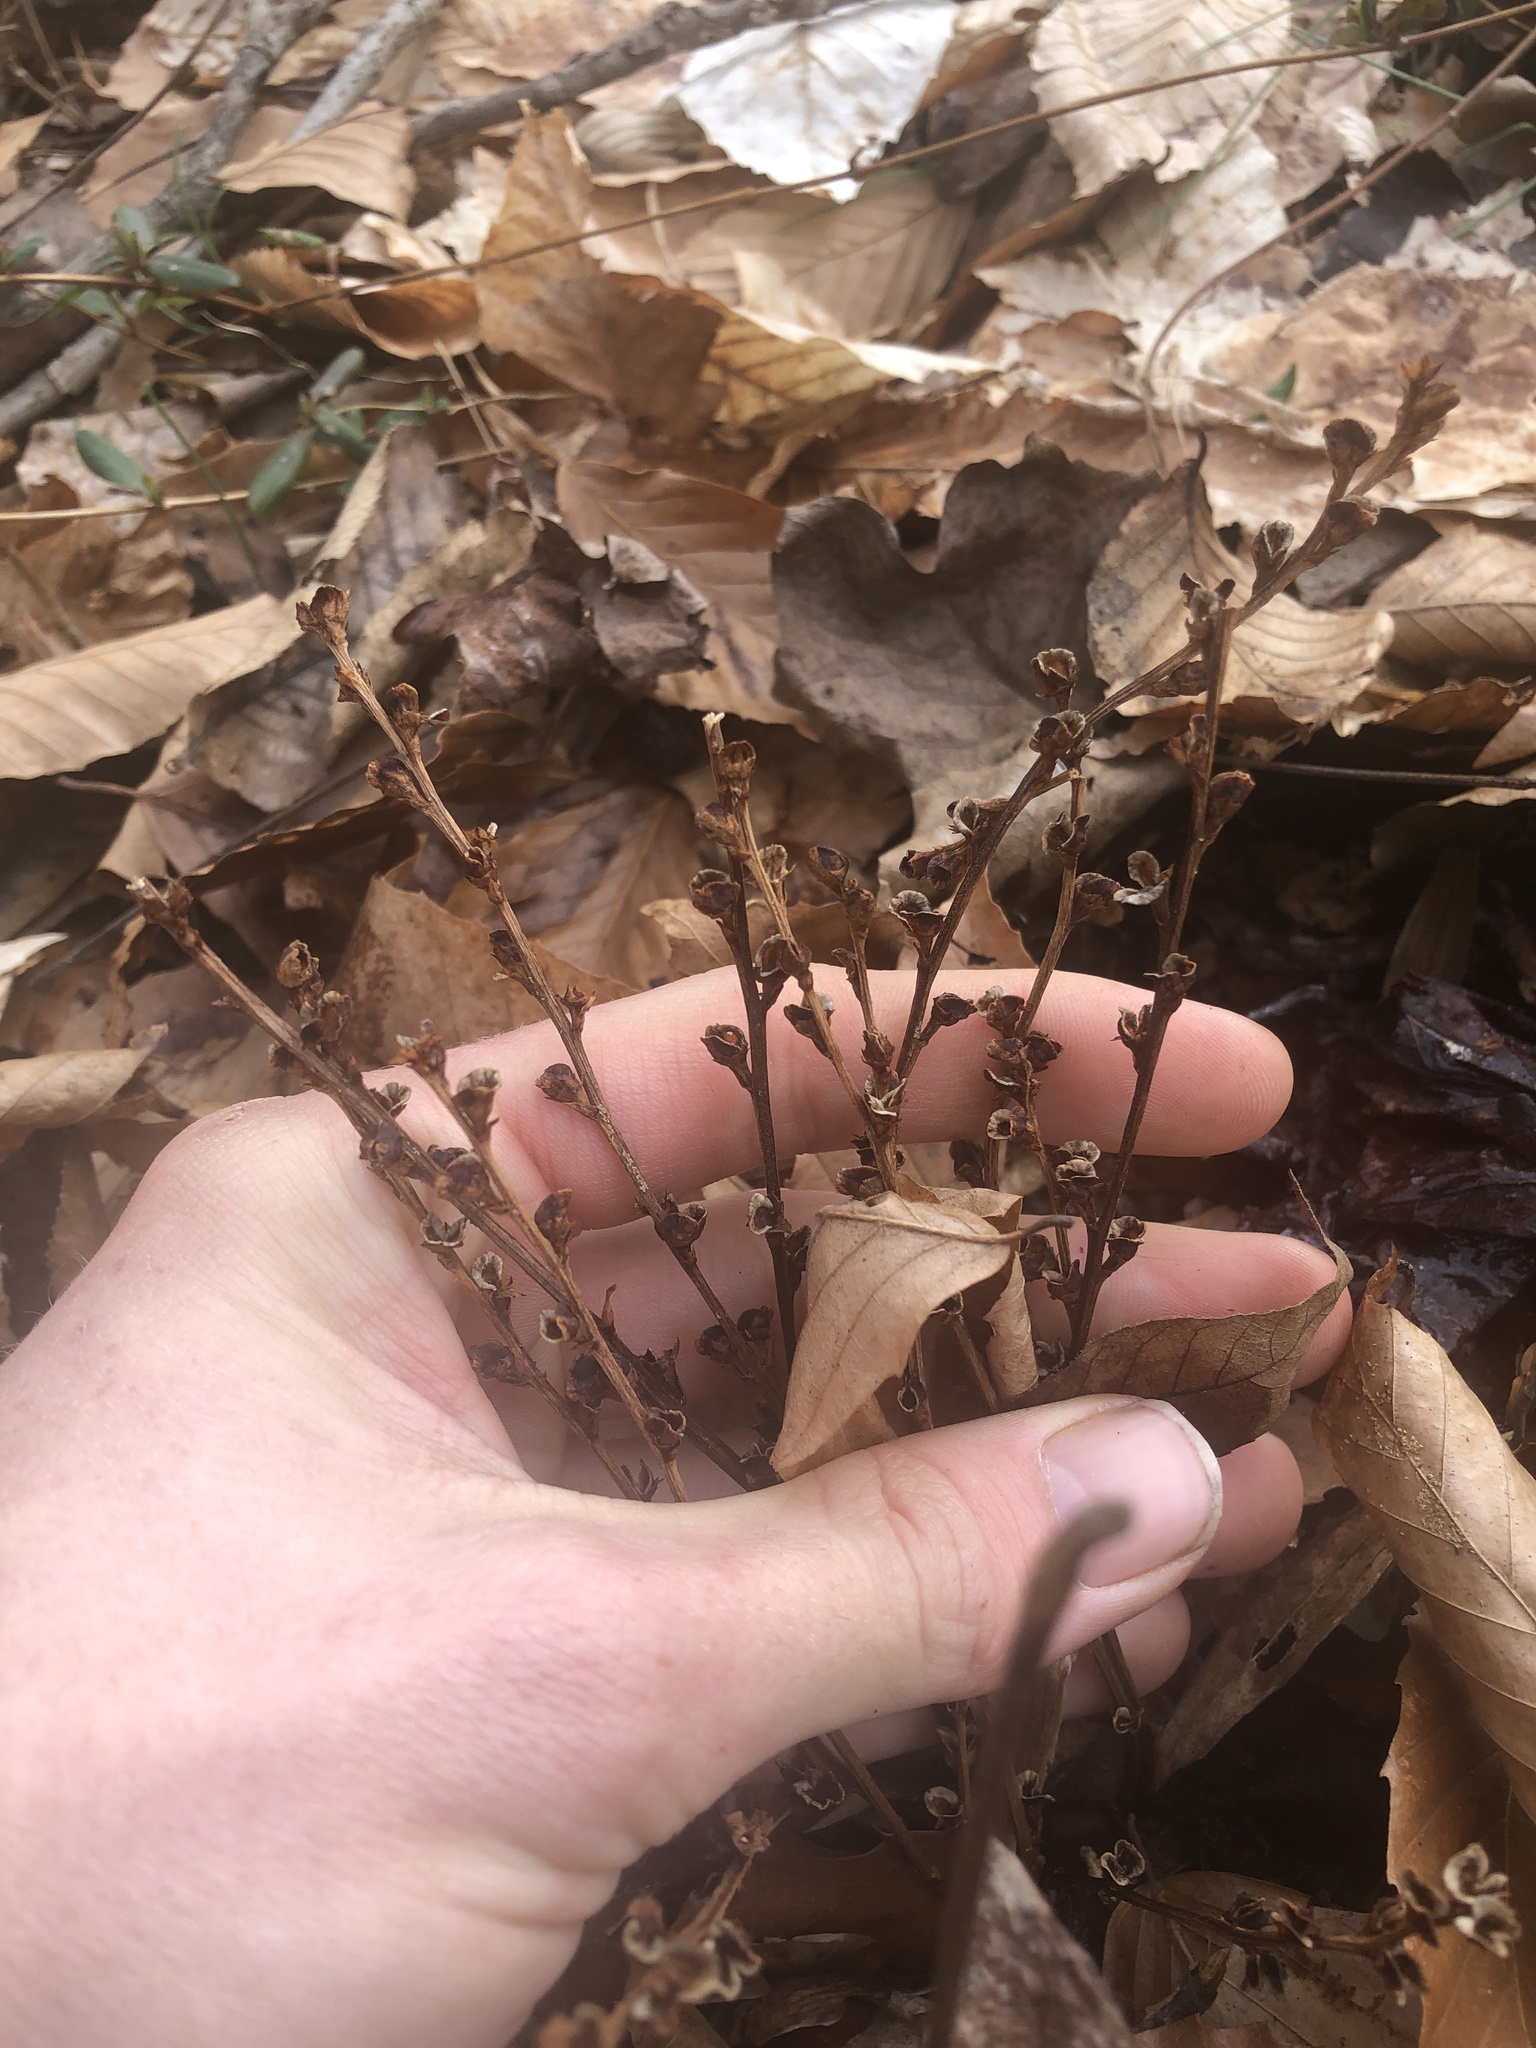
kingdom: Plantae
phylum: Tracheophyta
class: Magnoliopsida
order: Lamiales
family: Orobanchaceae
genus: Epifagus
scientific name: Epifagus virginiana
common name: Beechdrops
